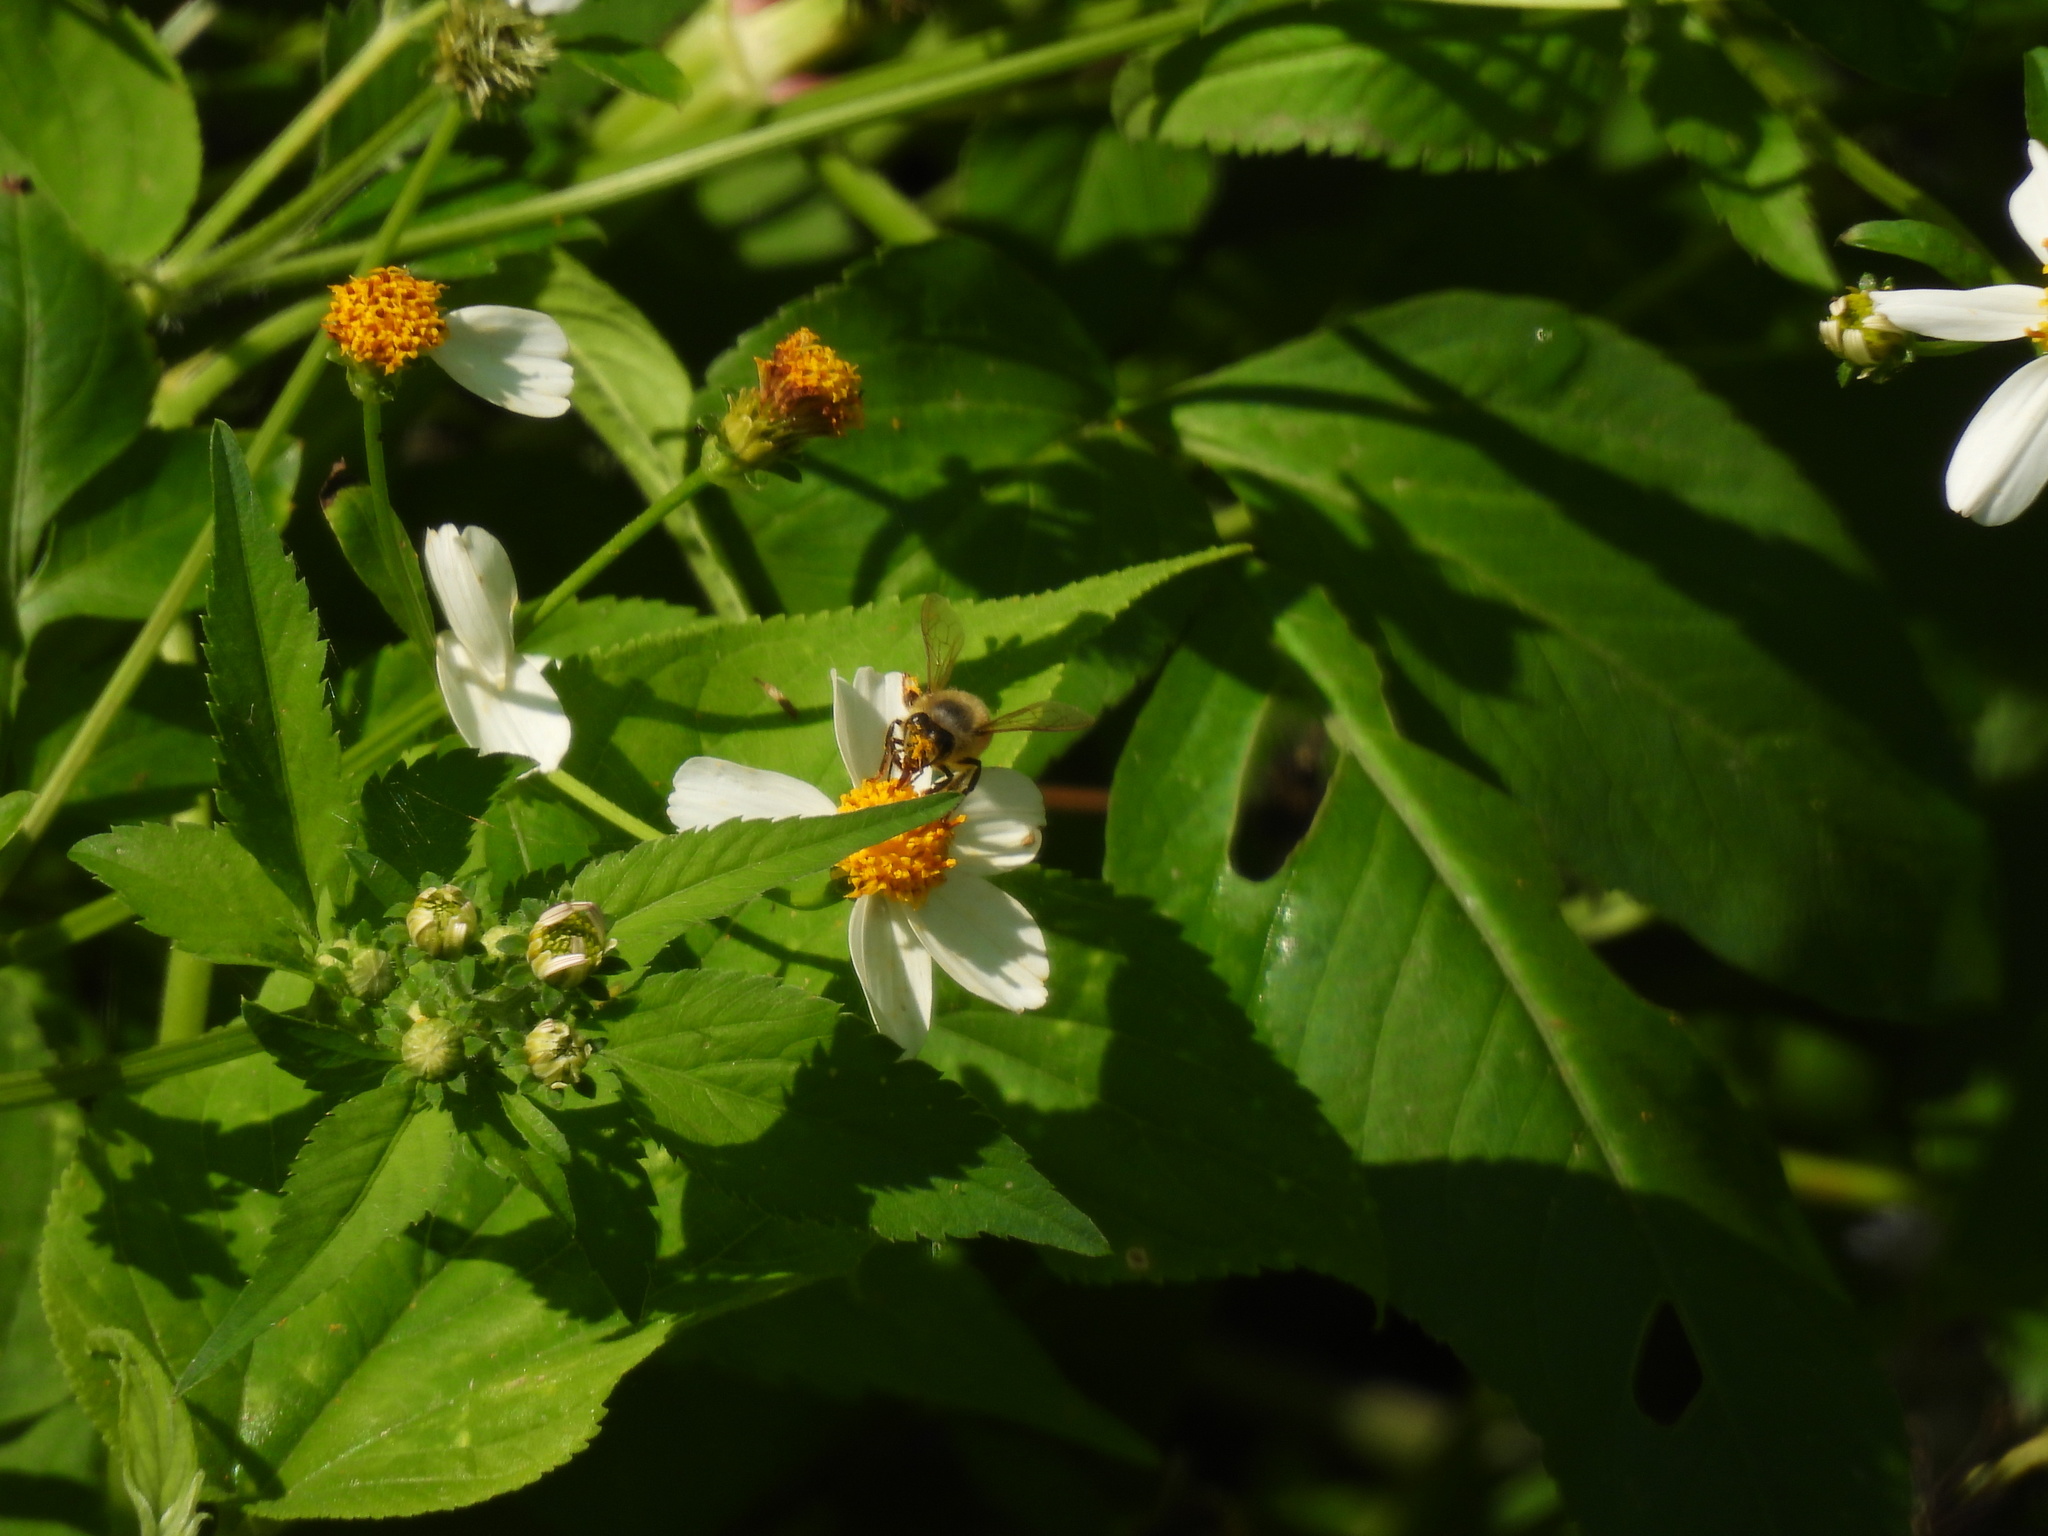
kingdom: Animalia
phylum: Arthropoda
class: Insecta
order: Hymenoptera
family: Apidae
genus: Apis
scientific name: Apis mellifera
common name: Honey bee
